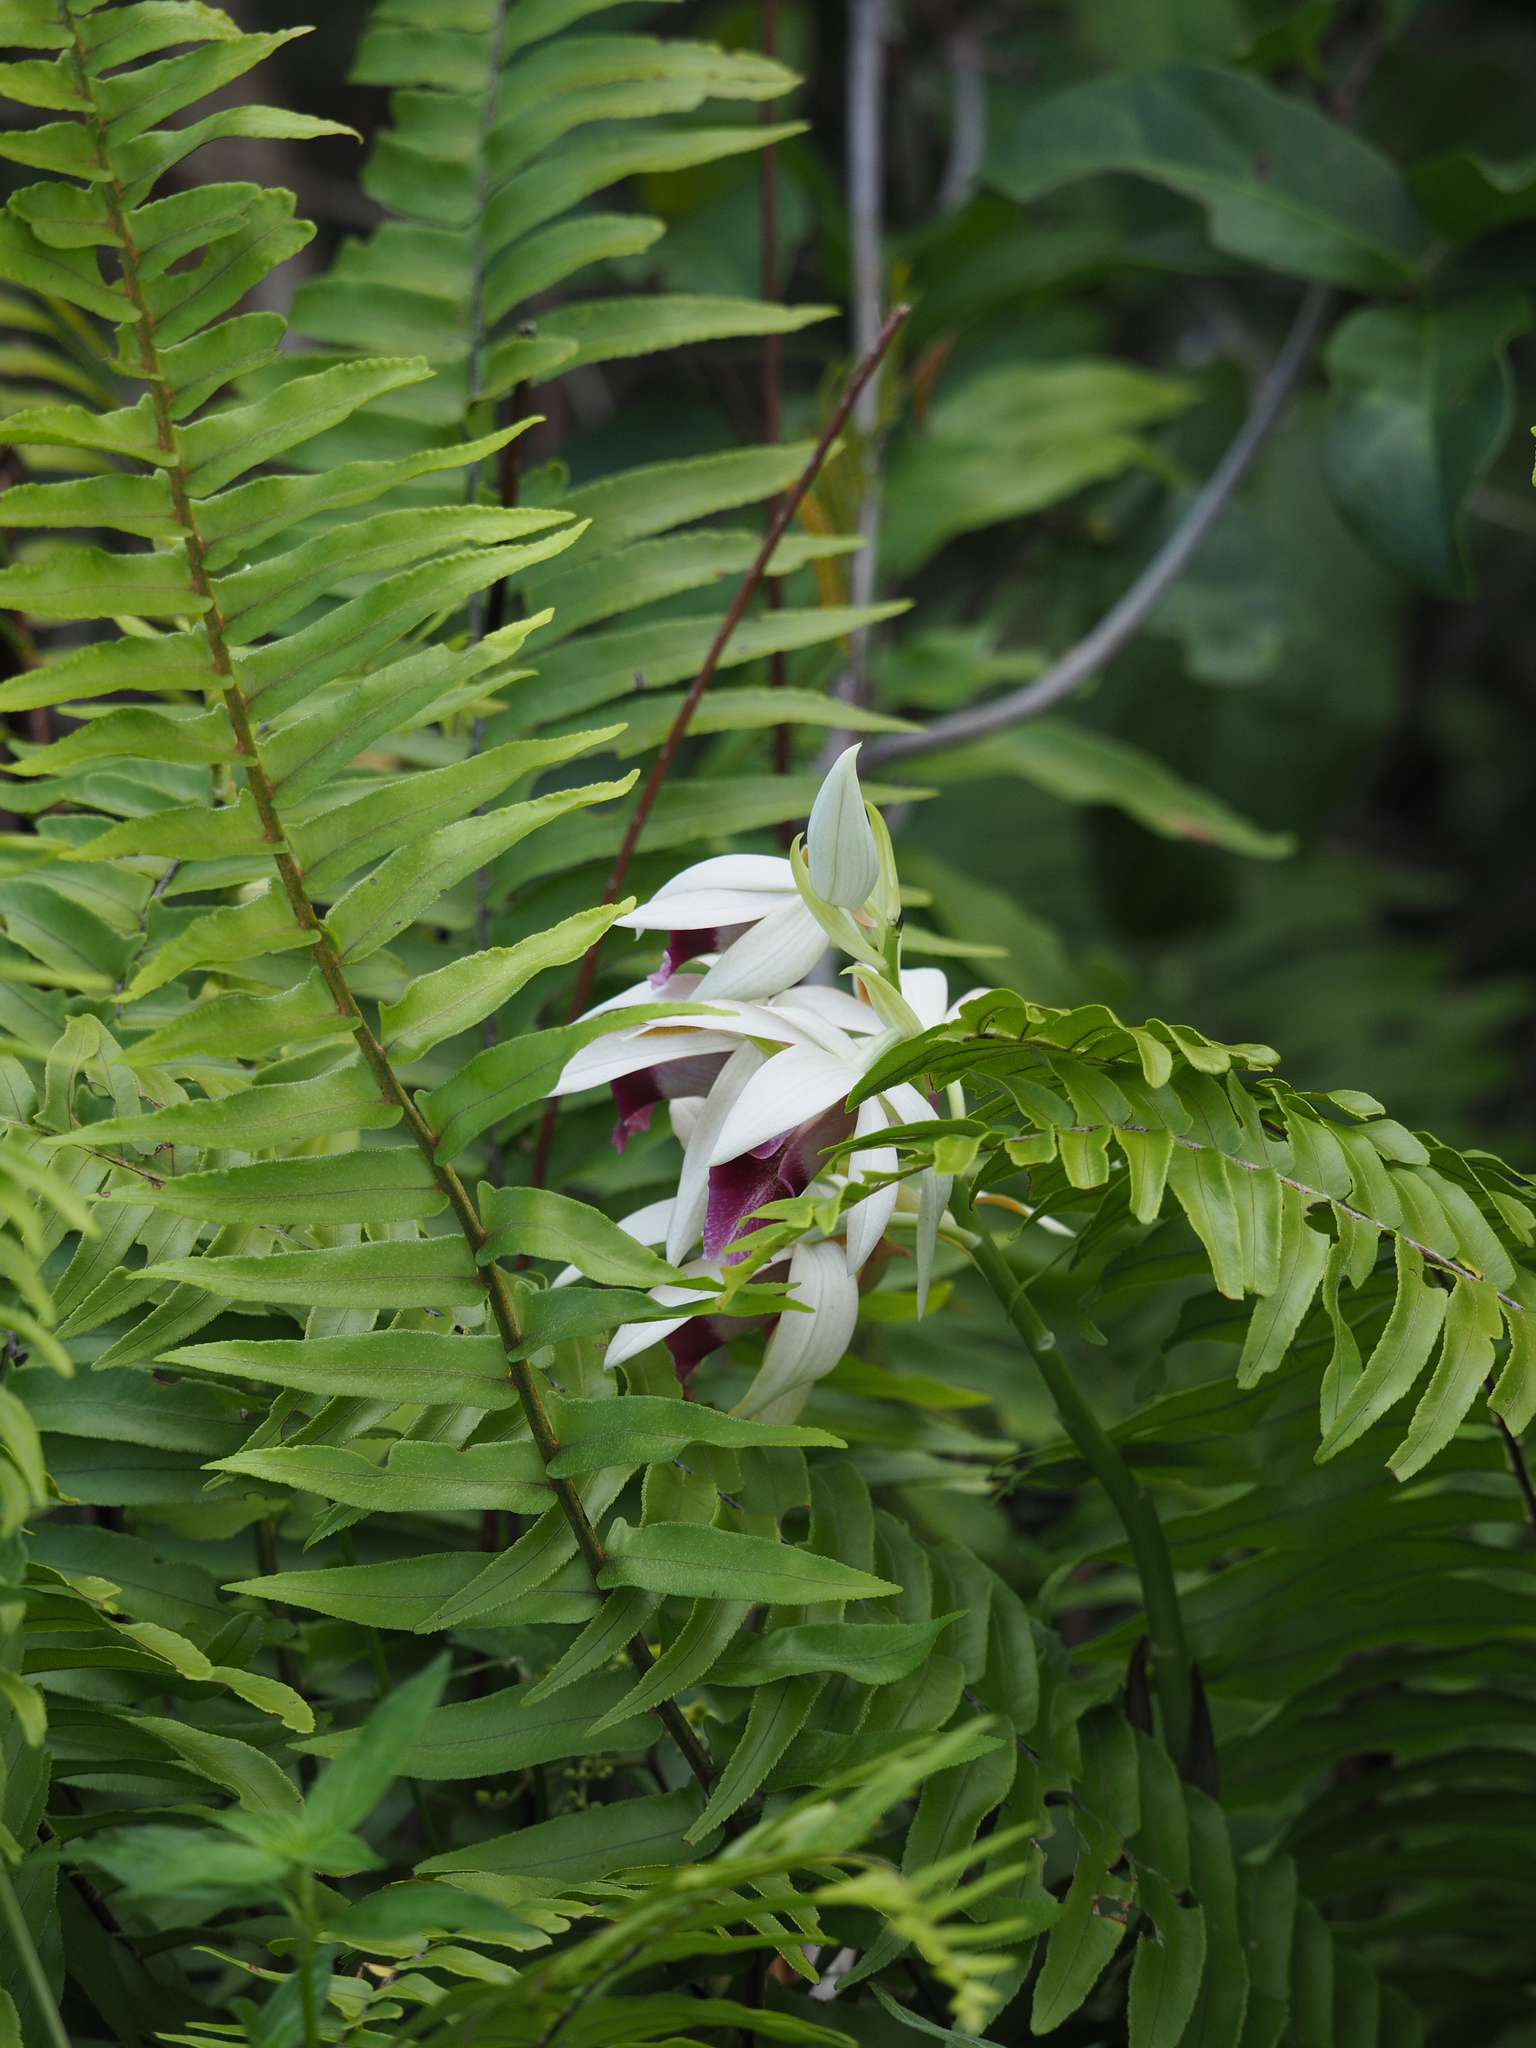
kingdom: Plantae
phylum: Tracheophyta
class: Liliopsida
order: Asparagales
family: Orchidaceae
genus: Calanthe
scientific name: Calanthe tankervilleae
